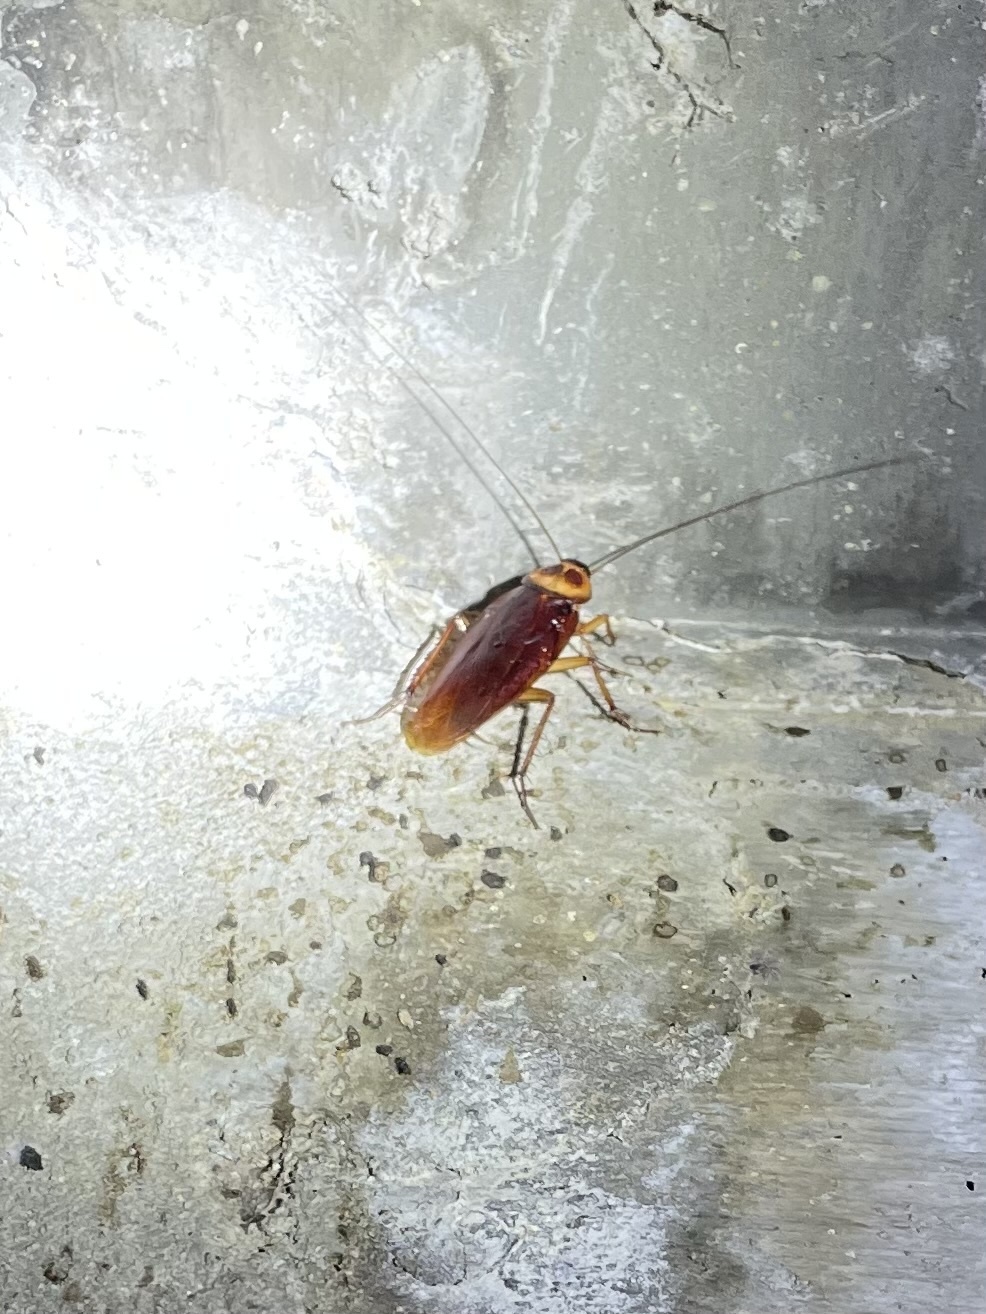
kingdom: Animalia
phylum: Arthropoda
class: Insecta
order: Blattodea
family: Blattidae
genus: Periplaneta
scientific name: Periplaneta americana
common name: American cockroach
